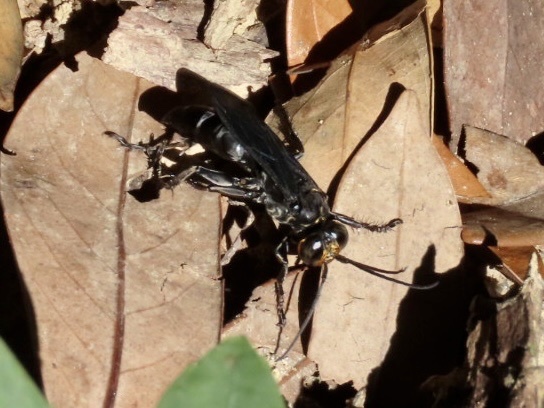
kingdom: Animalia
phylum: Arthropoda
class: Insecta
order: Hymenoptera
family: Crabronidae
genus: Liris
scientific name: Liris anthracinus
